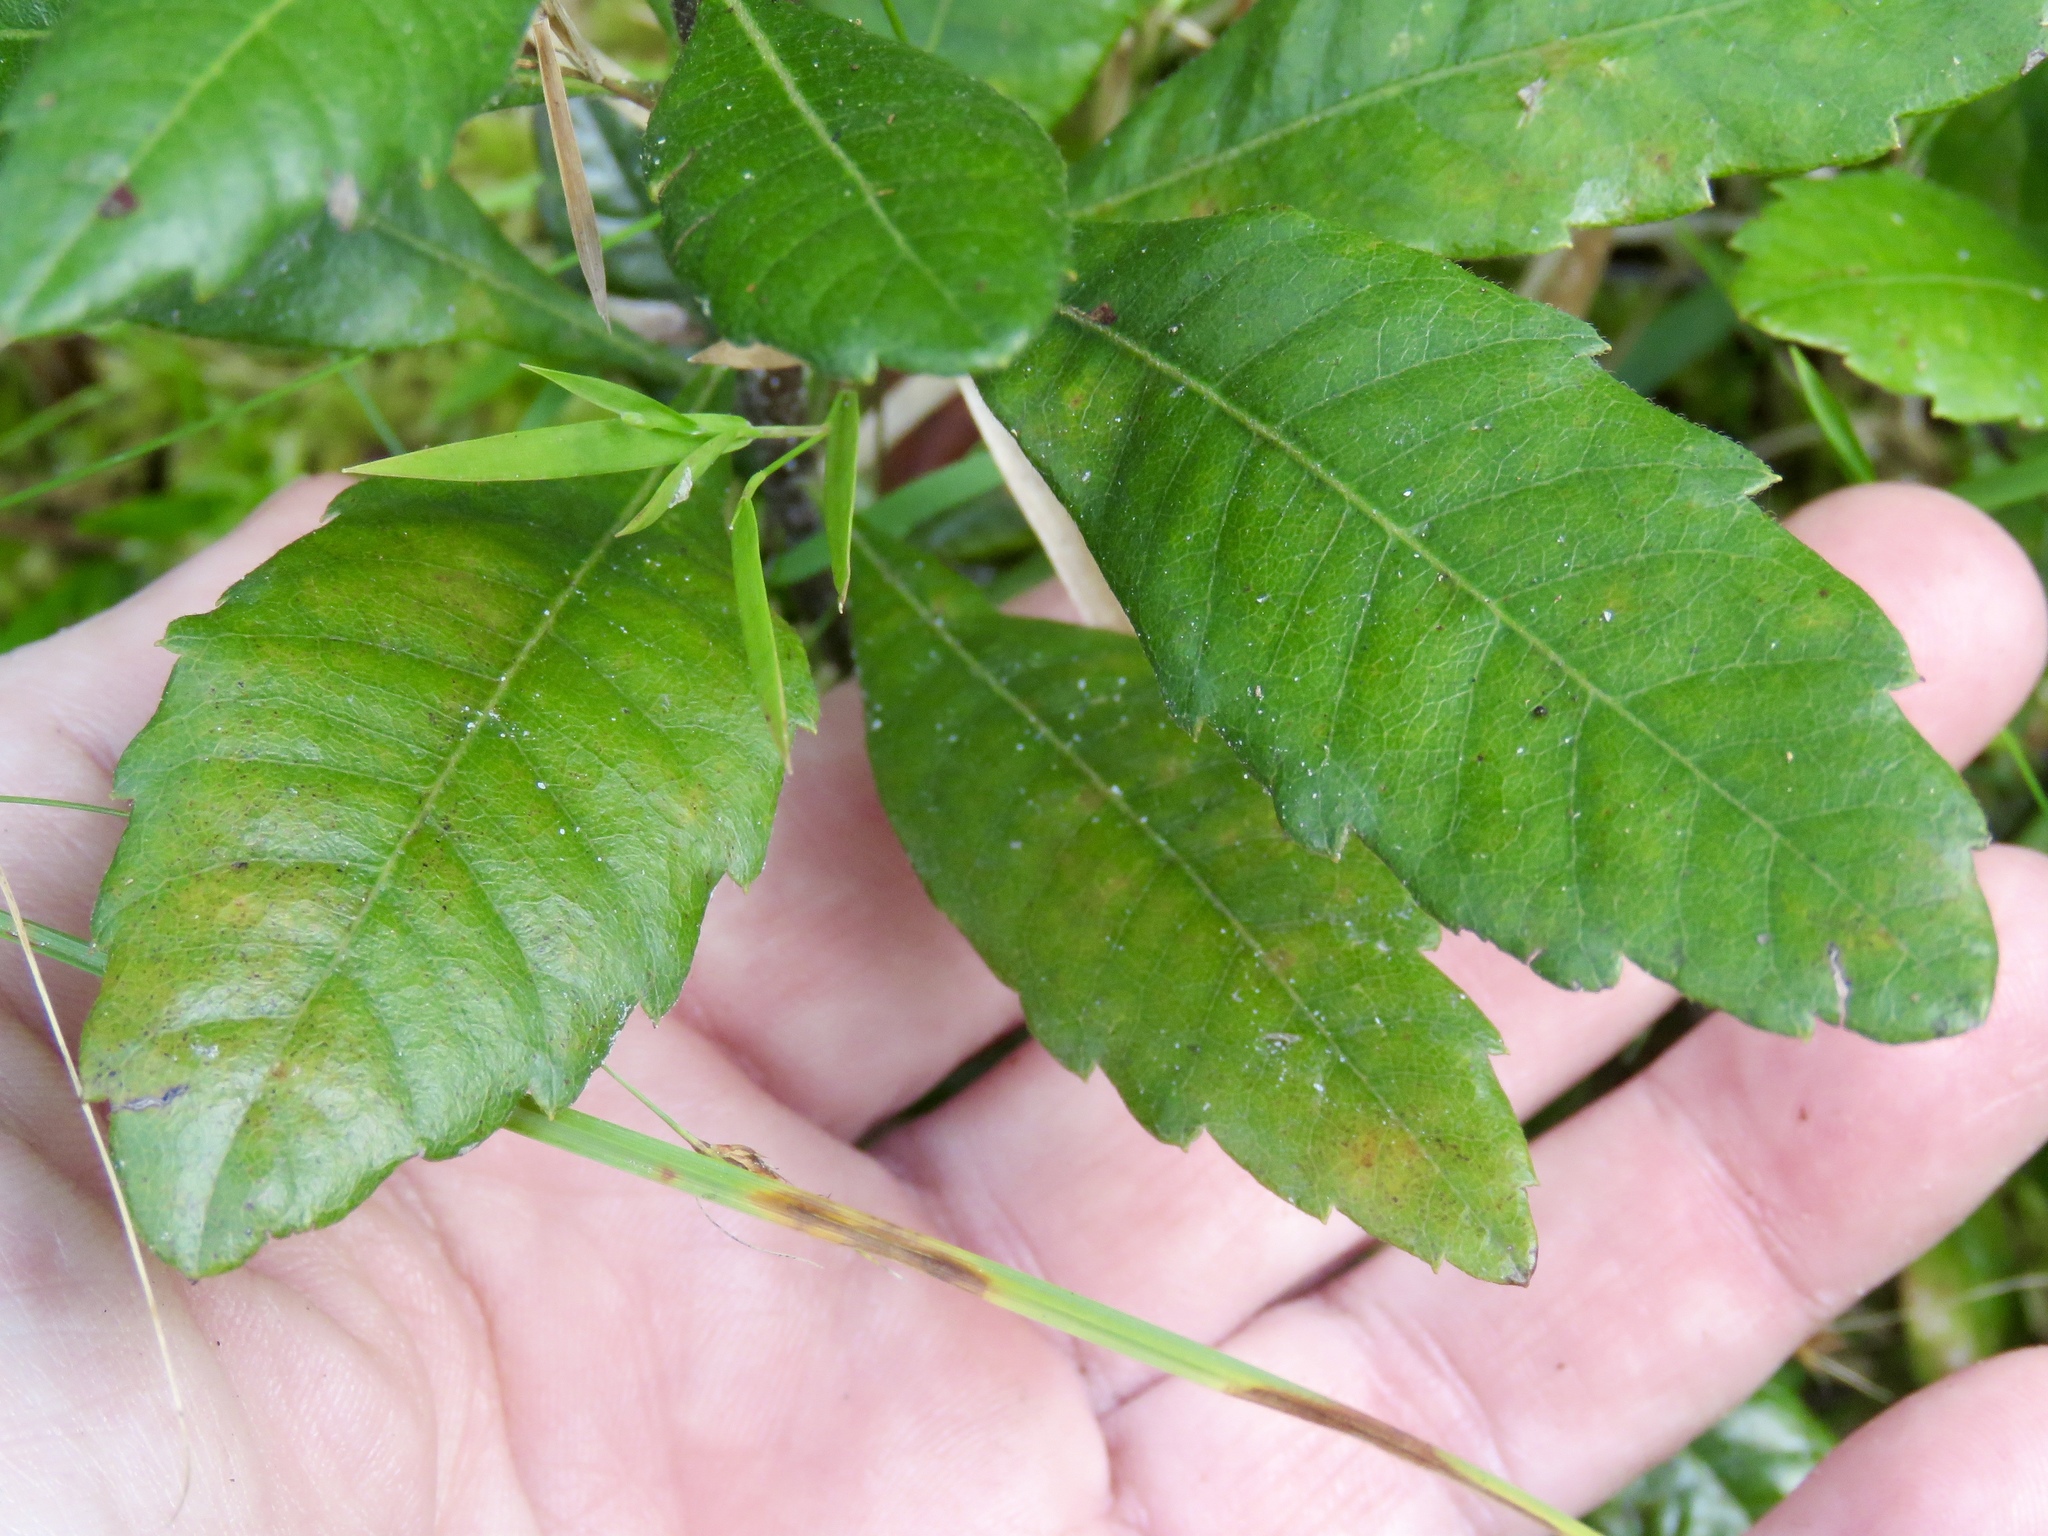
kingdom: Plantae
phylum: Tracheophyta
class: Magnoliopsida
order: Fagales
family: Myricaceae
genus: Morella
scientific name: Morella caroliniensis
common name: Evergreen bayberry
